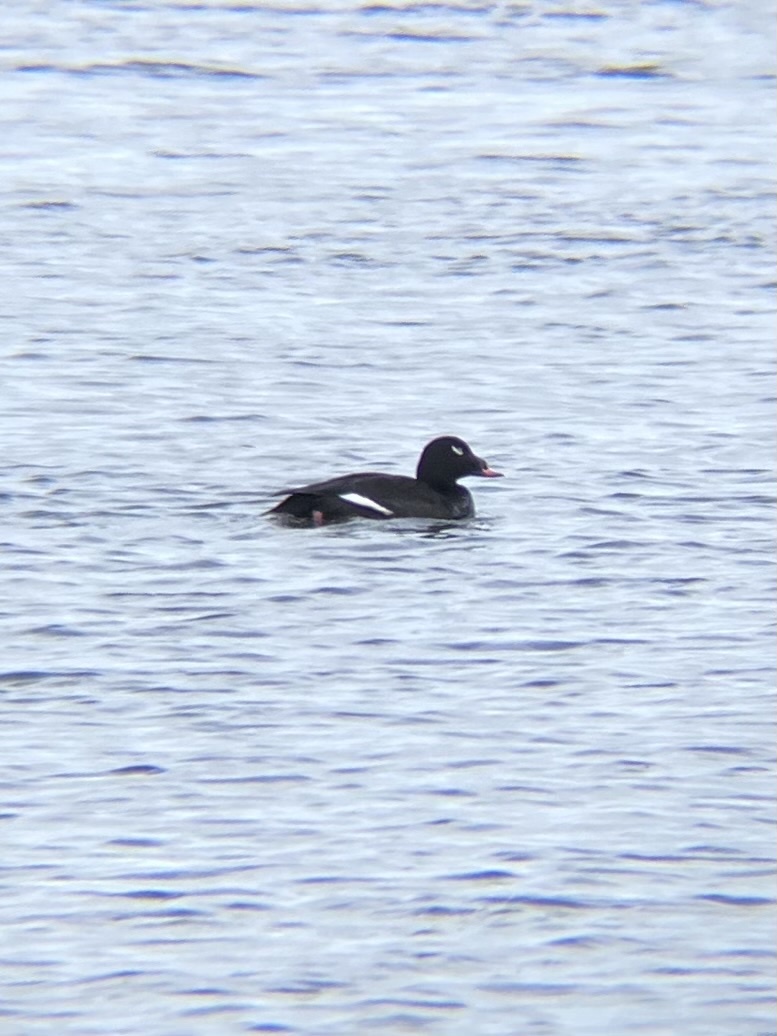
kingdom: Animalia
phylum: Chordata
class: Aves
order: Anseriformes
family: Anatidae
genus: Melanitta
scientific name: Melanitta deglandi
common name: White-winged scoter
